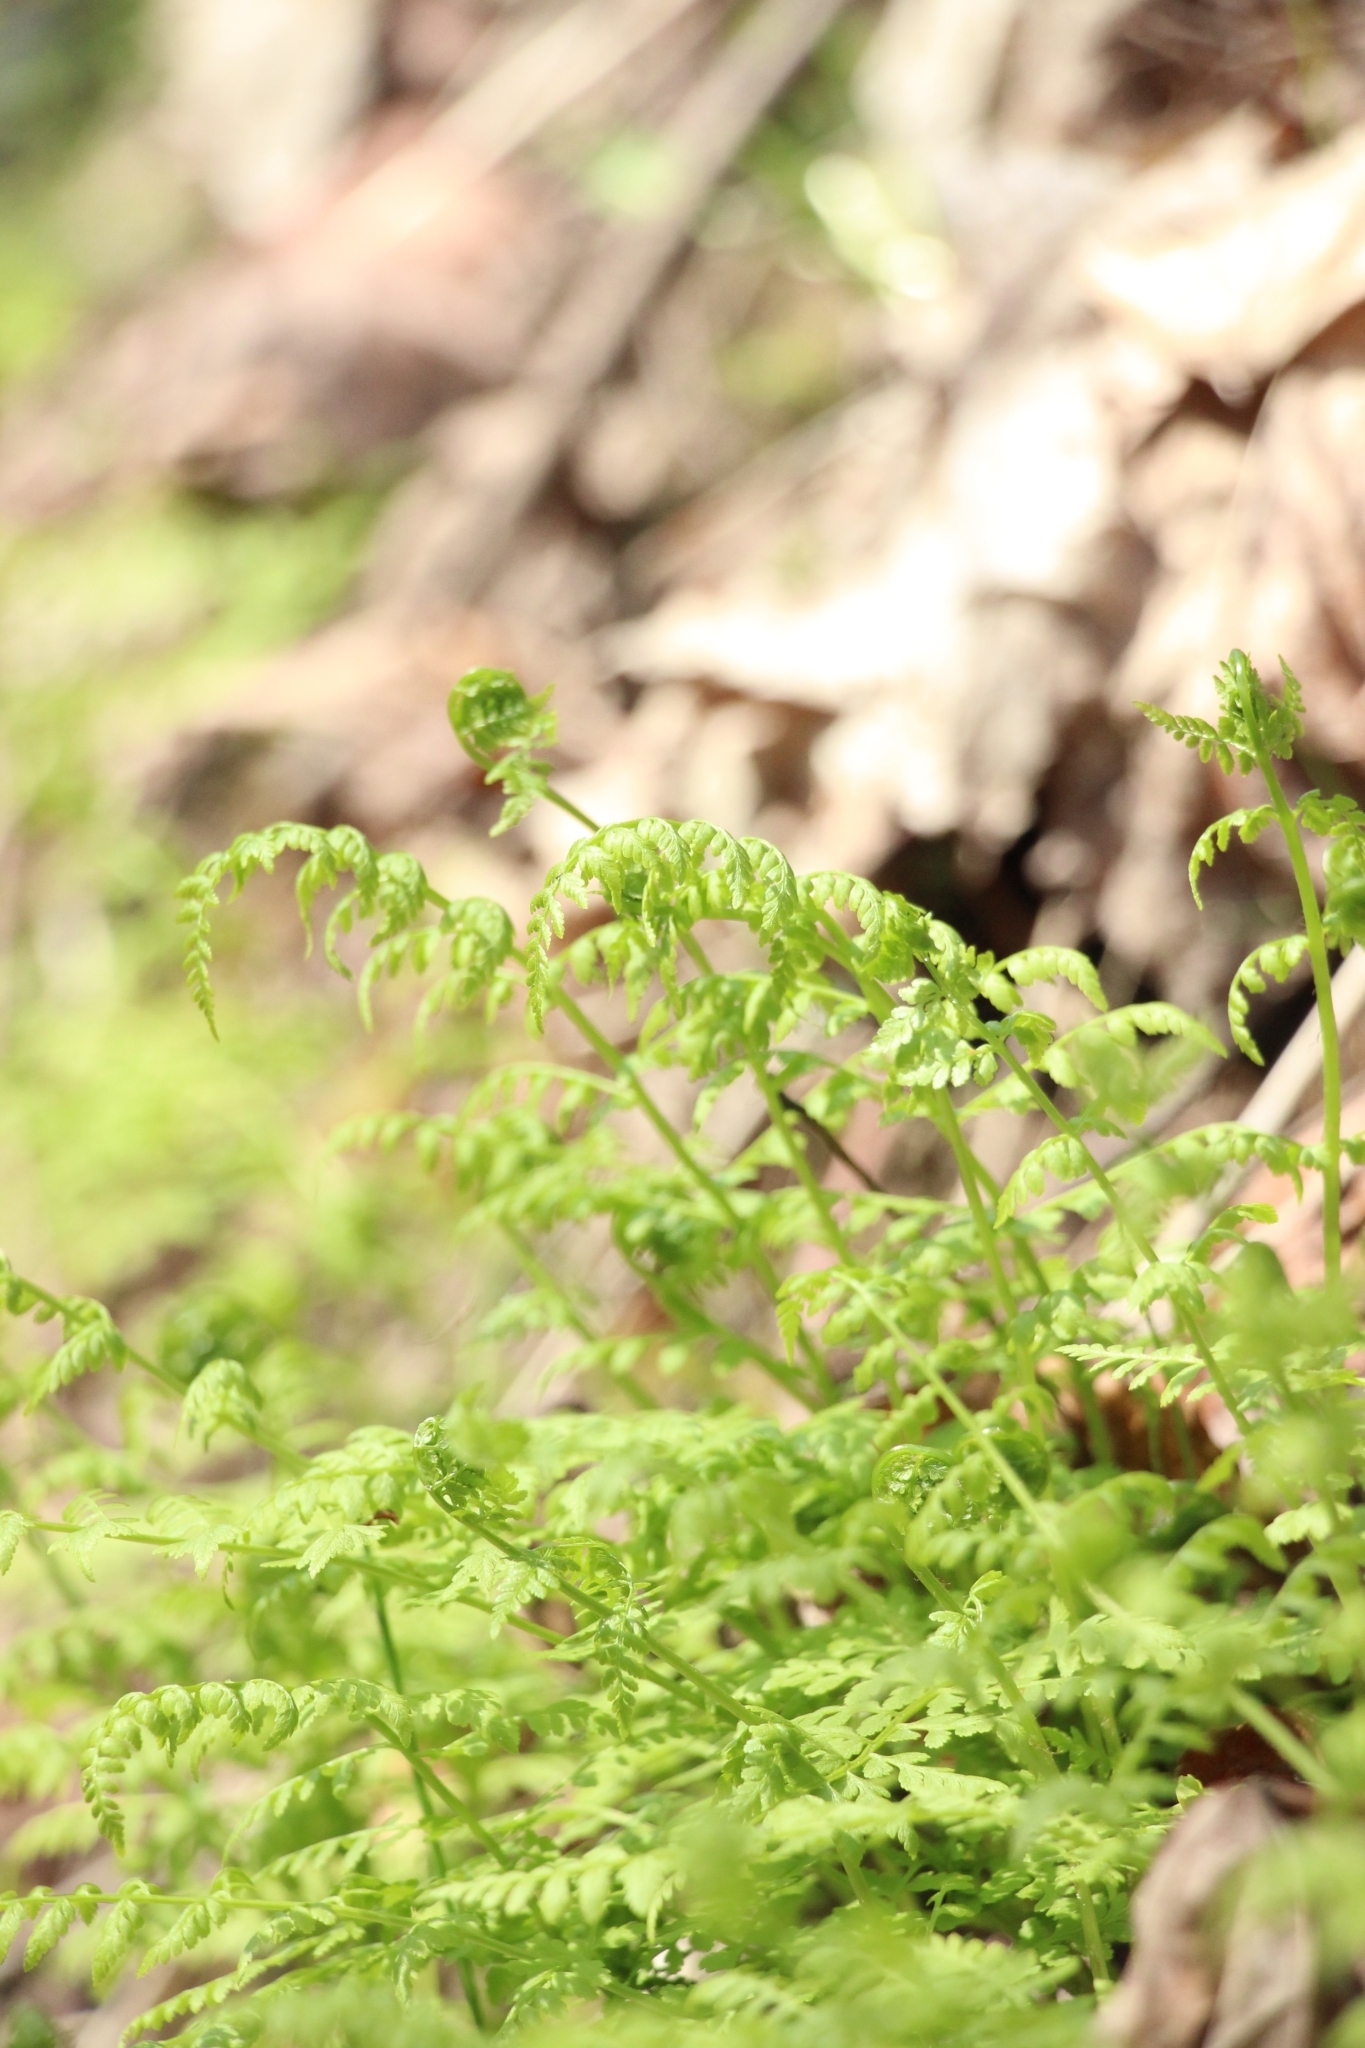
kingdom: Plantae
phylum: Tracheophyta
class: Polypodiopsida
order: Polypodiales
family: Cystopteridaceae
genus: Cystopteris
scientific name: Cystopteris fragilis
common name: Brittle bladder fern
